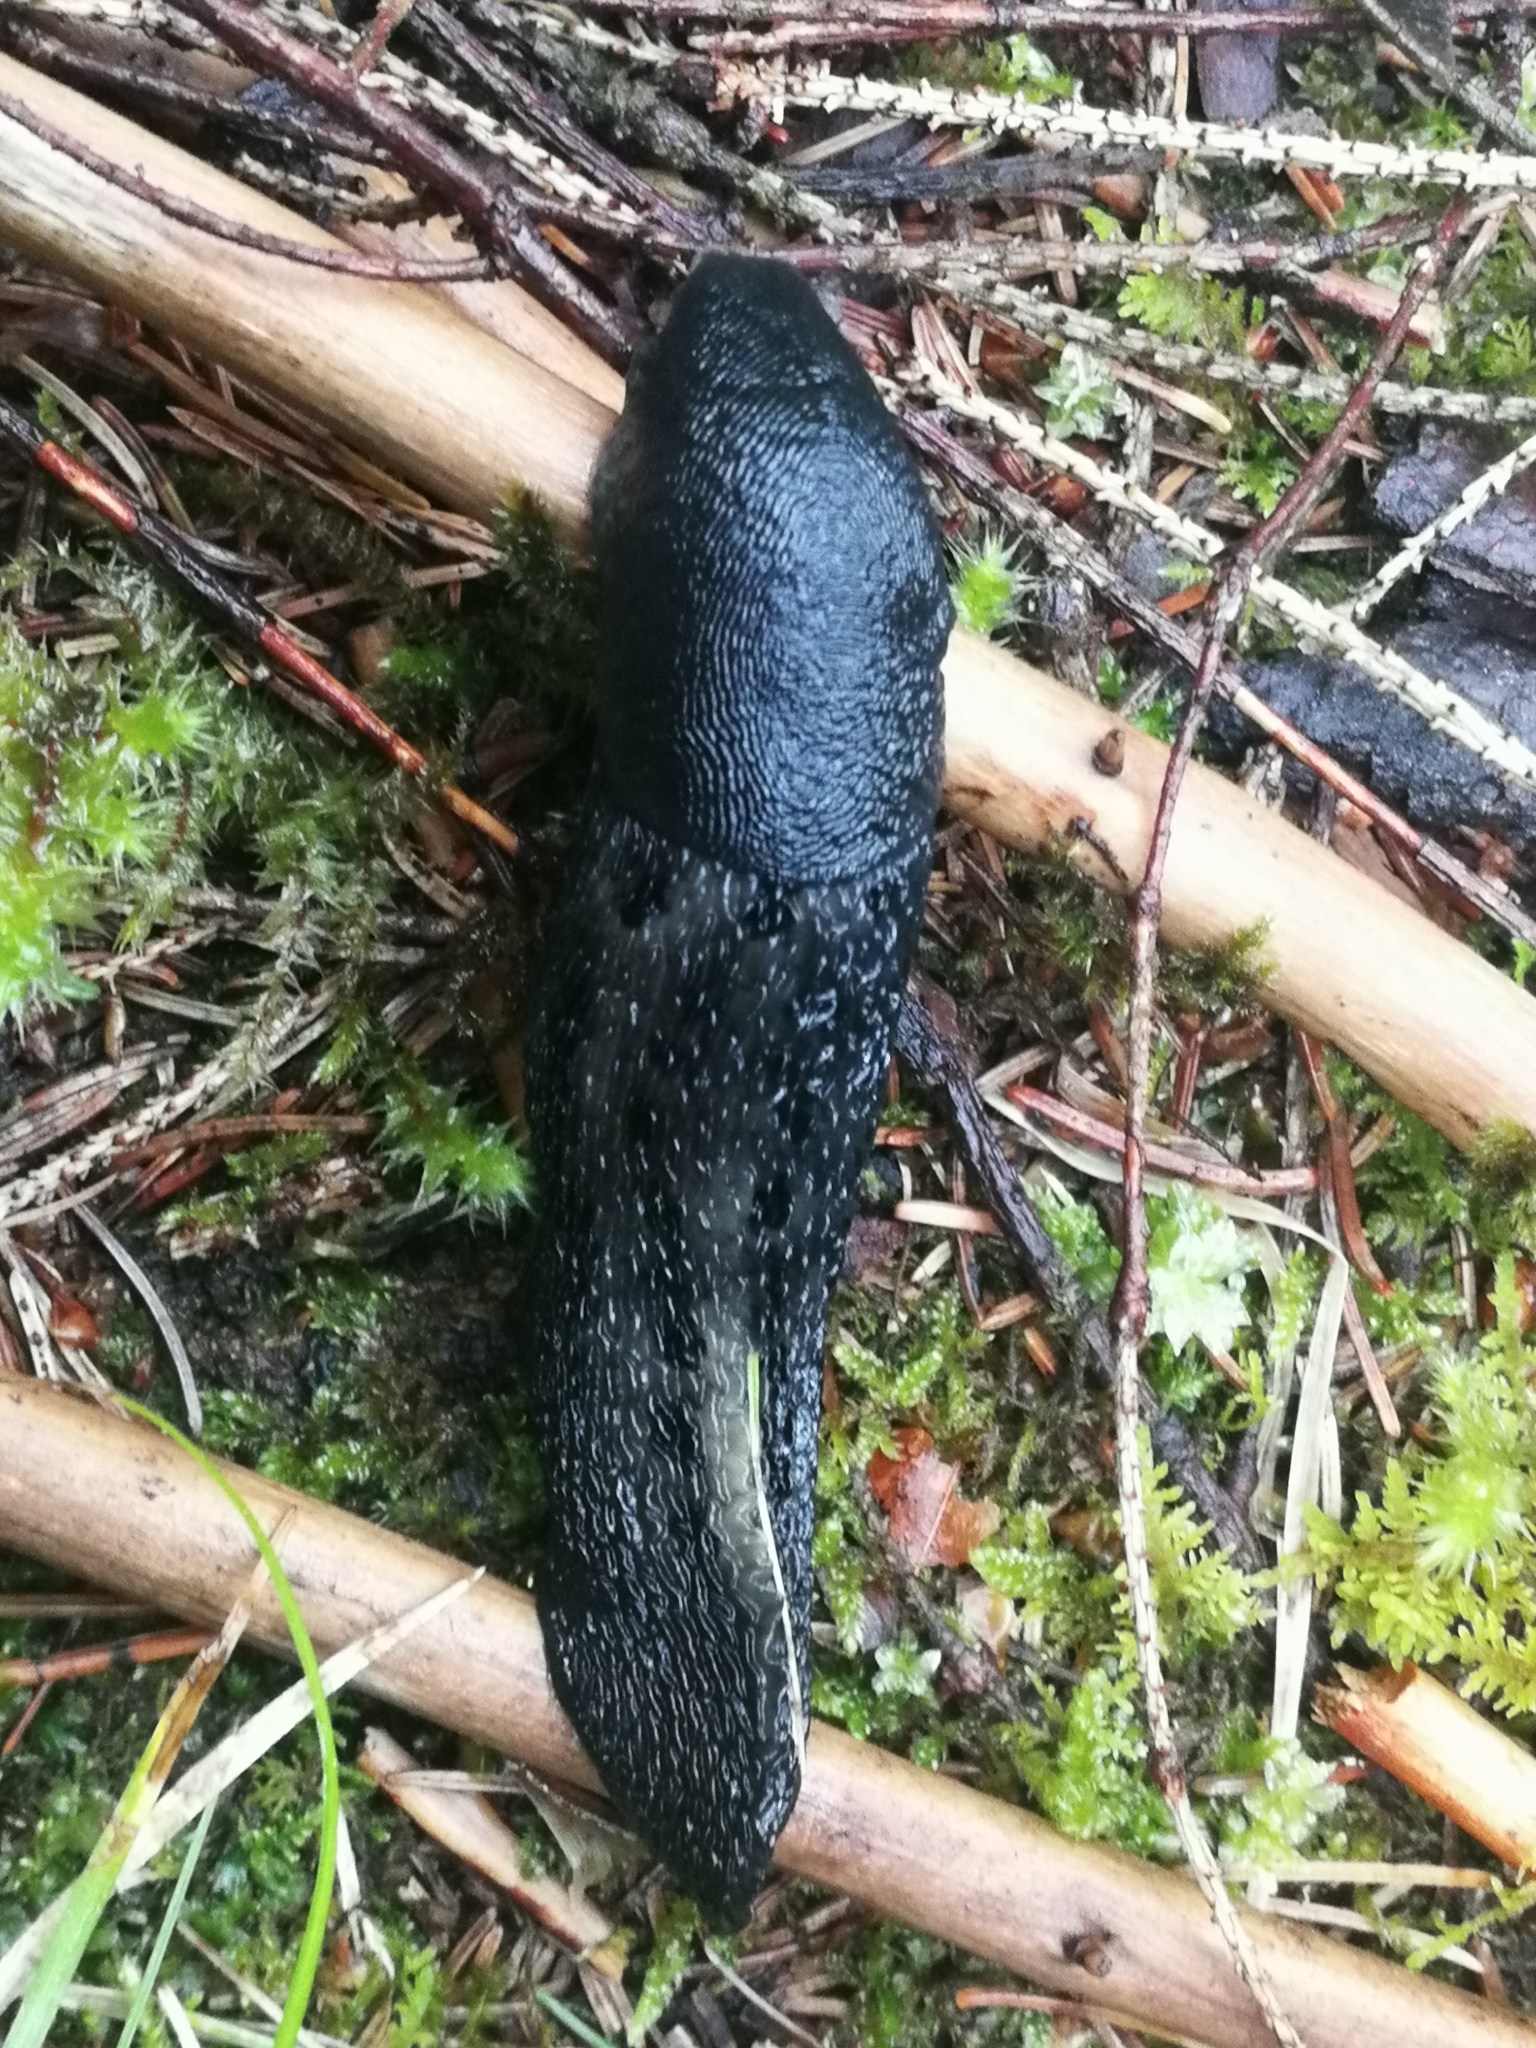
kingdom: Animalia
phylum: Mollusca
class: Gastropoda
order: Stylommatophora
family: Limacidae
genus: Limax
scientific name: Limax cinereoniger
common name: Ash-black slug
